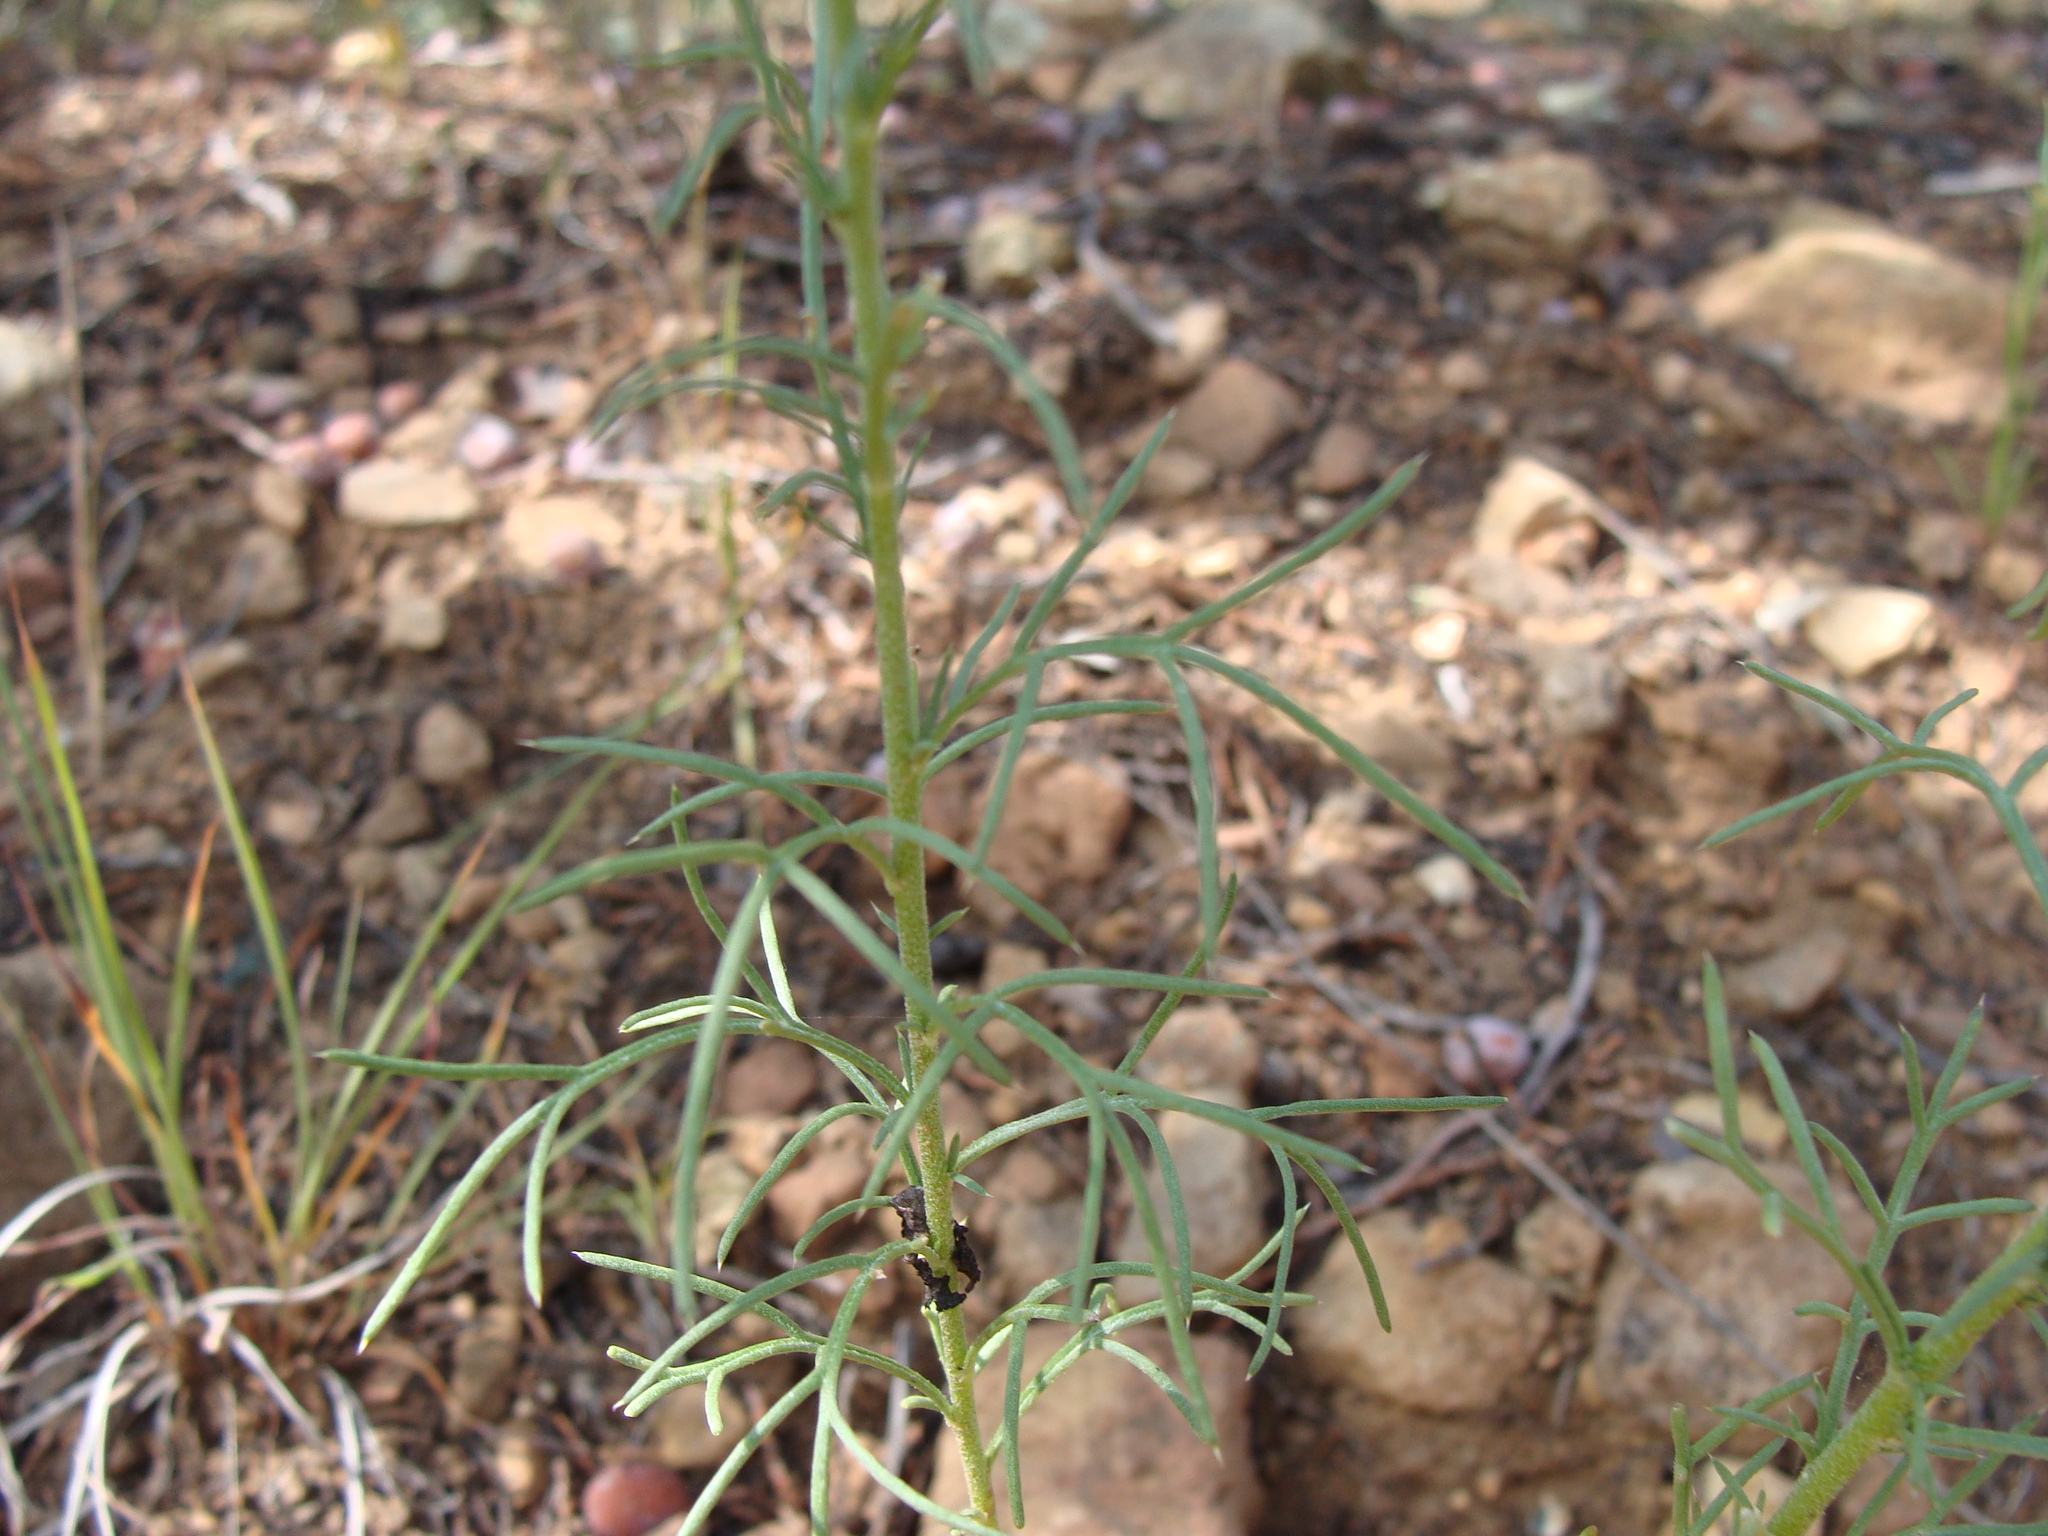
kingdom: Plantae
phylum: Tracheophyta
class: Magnoliopsida
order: Ericales
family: Polemoniaceae
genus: Ipomopsis
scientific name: Ipomopsis thurberi
